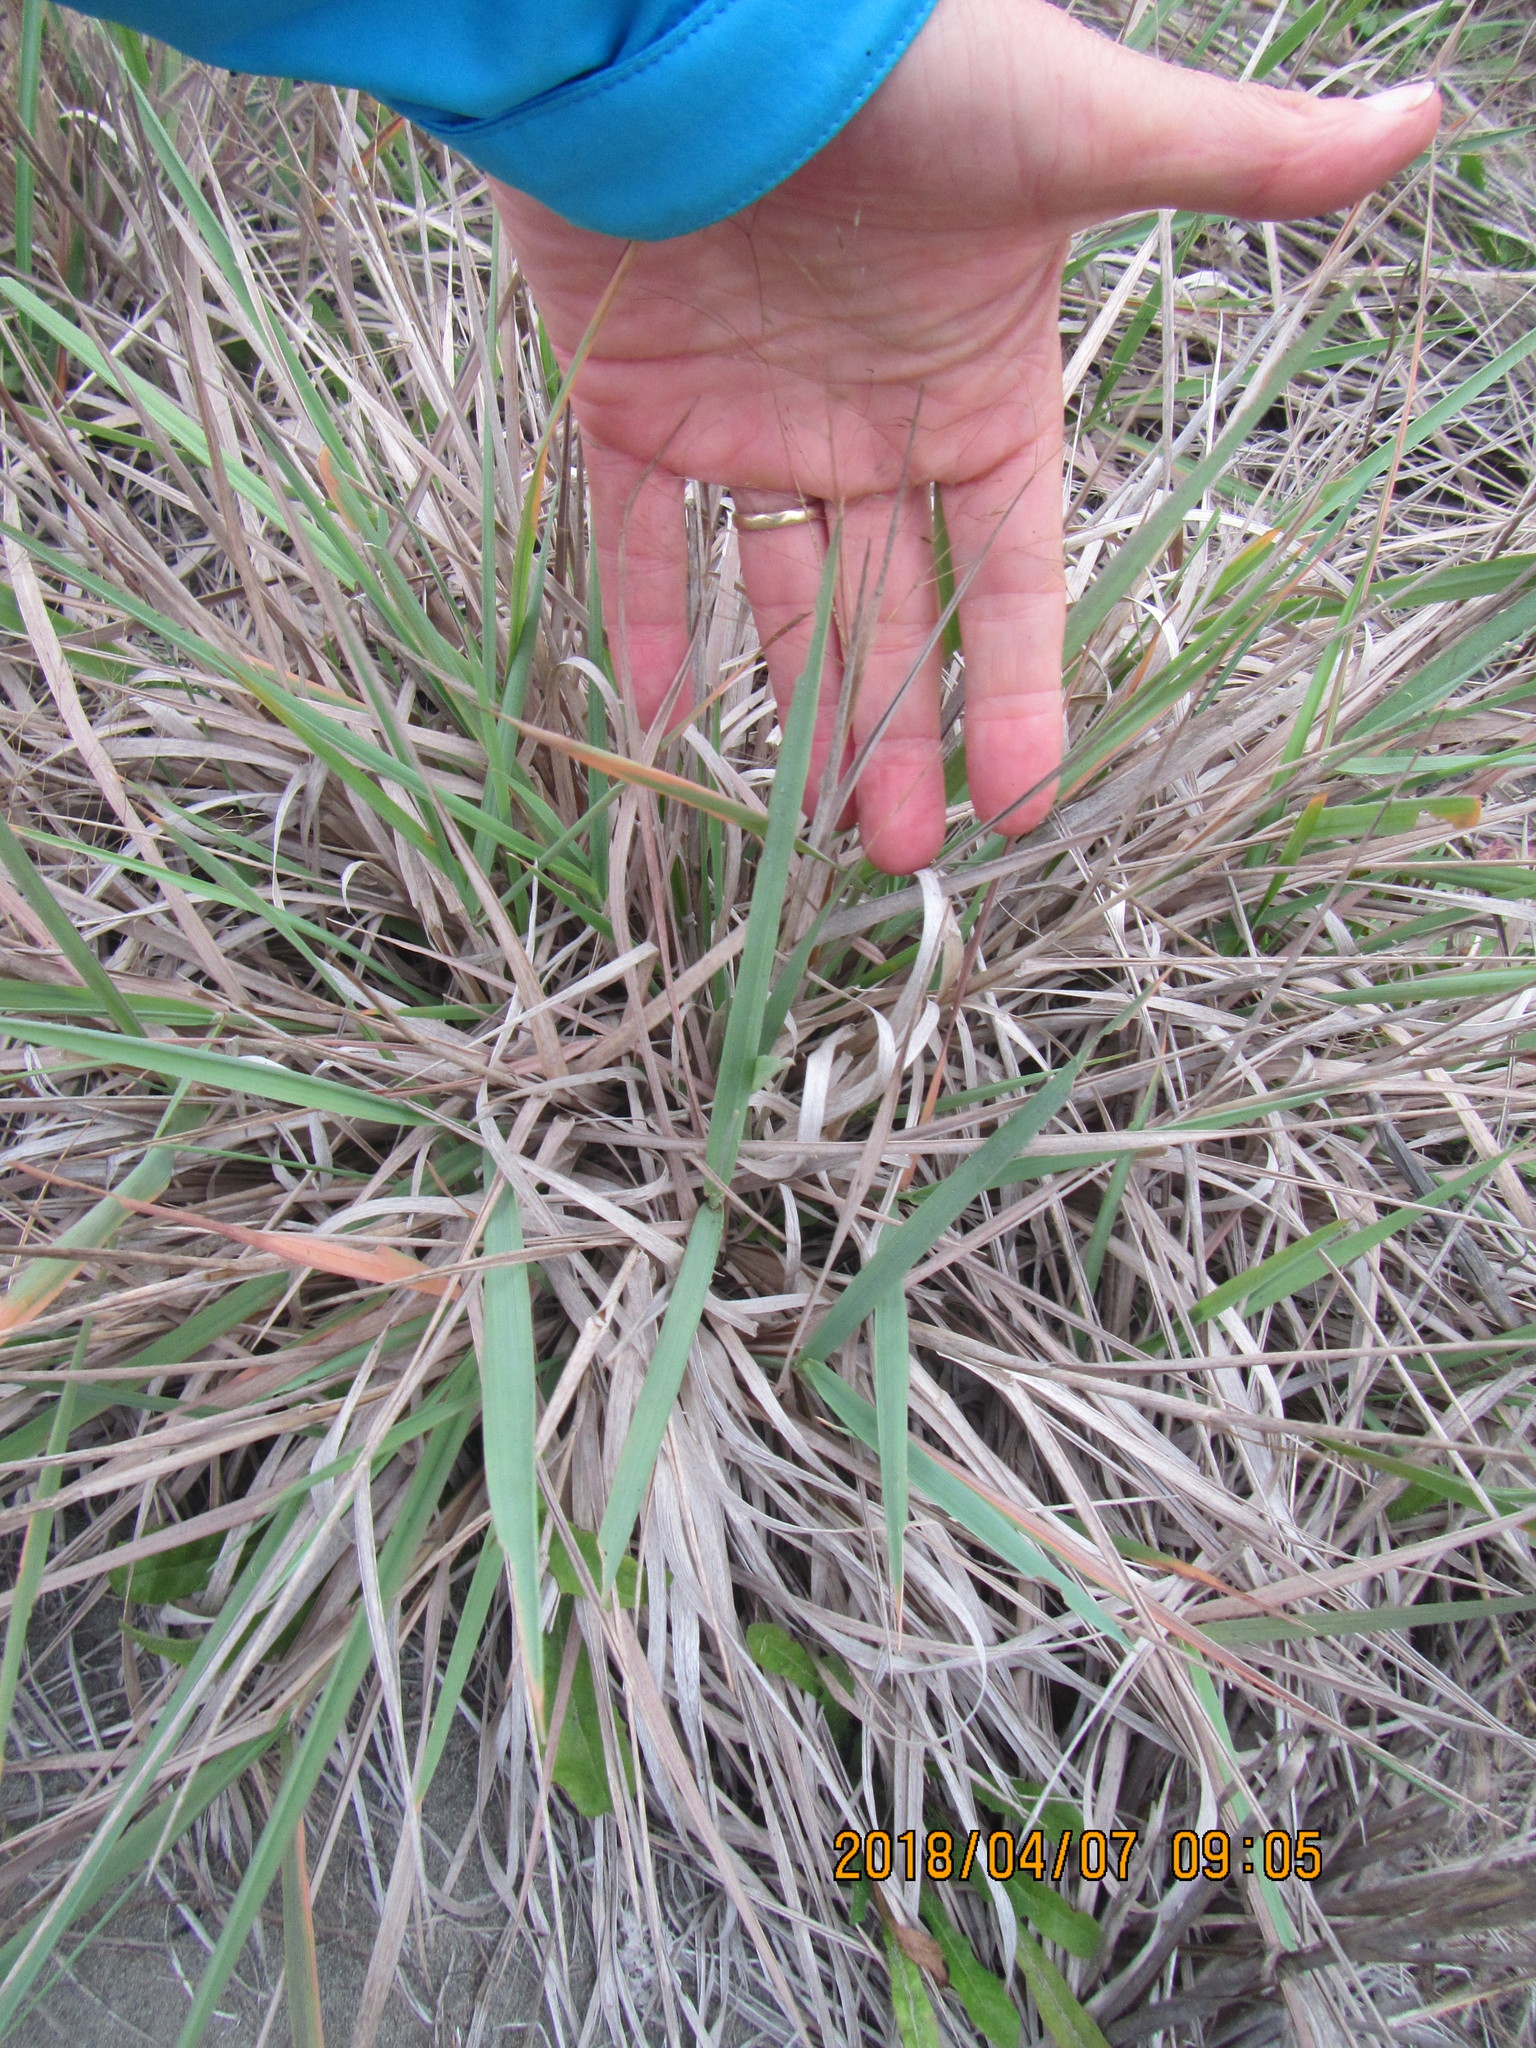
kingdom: Plantae
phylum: Tracheophyta
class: Liliopsida
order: Poales
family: Poaceae
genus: Lachnagrostis
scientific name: Lachnagrostis billardierei
